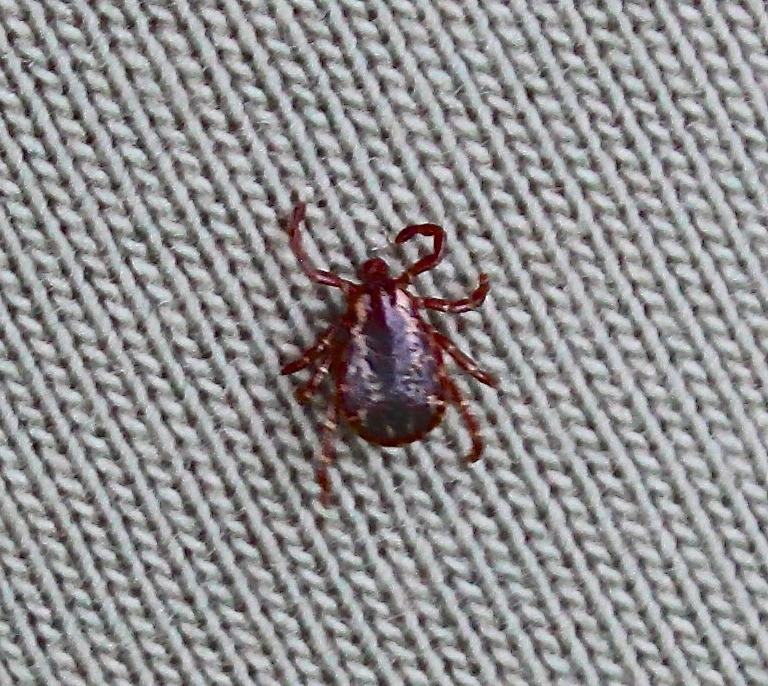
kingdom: Animalia
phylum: Arthropoda
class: Arachnida
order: Ixodida
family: Ixodidae
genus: Dermacentor
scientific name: Dermacentor variabilis
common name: American dog tick
